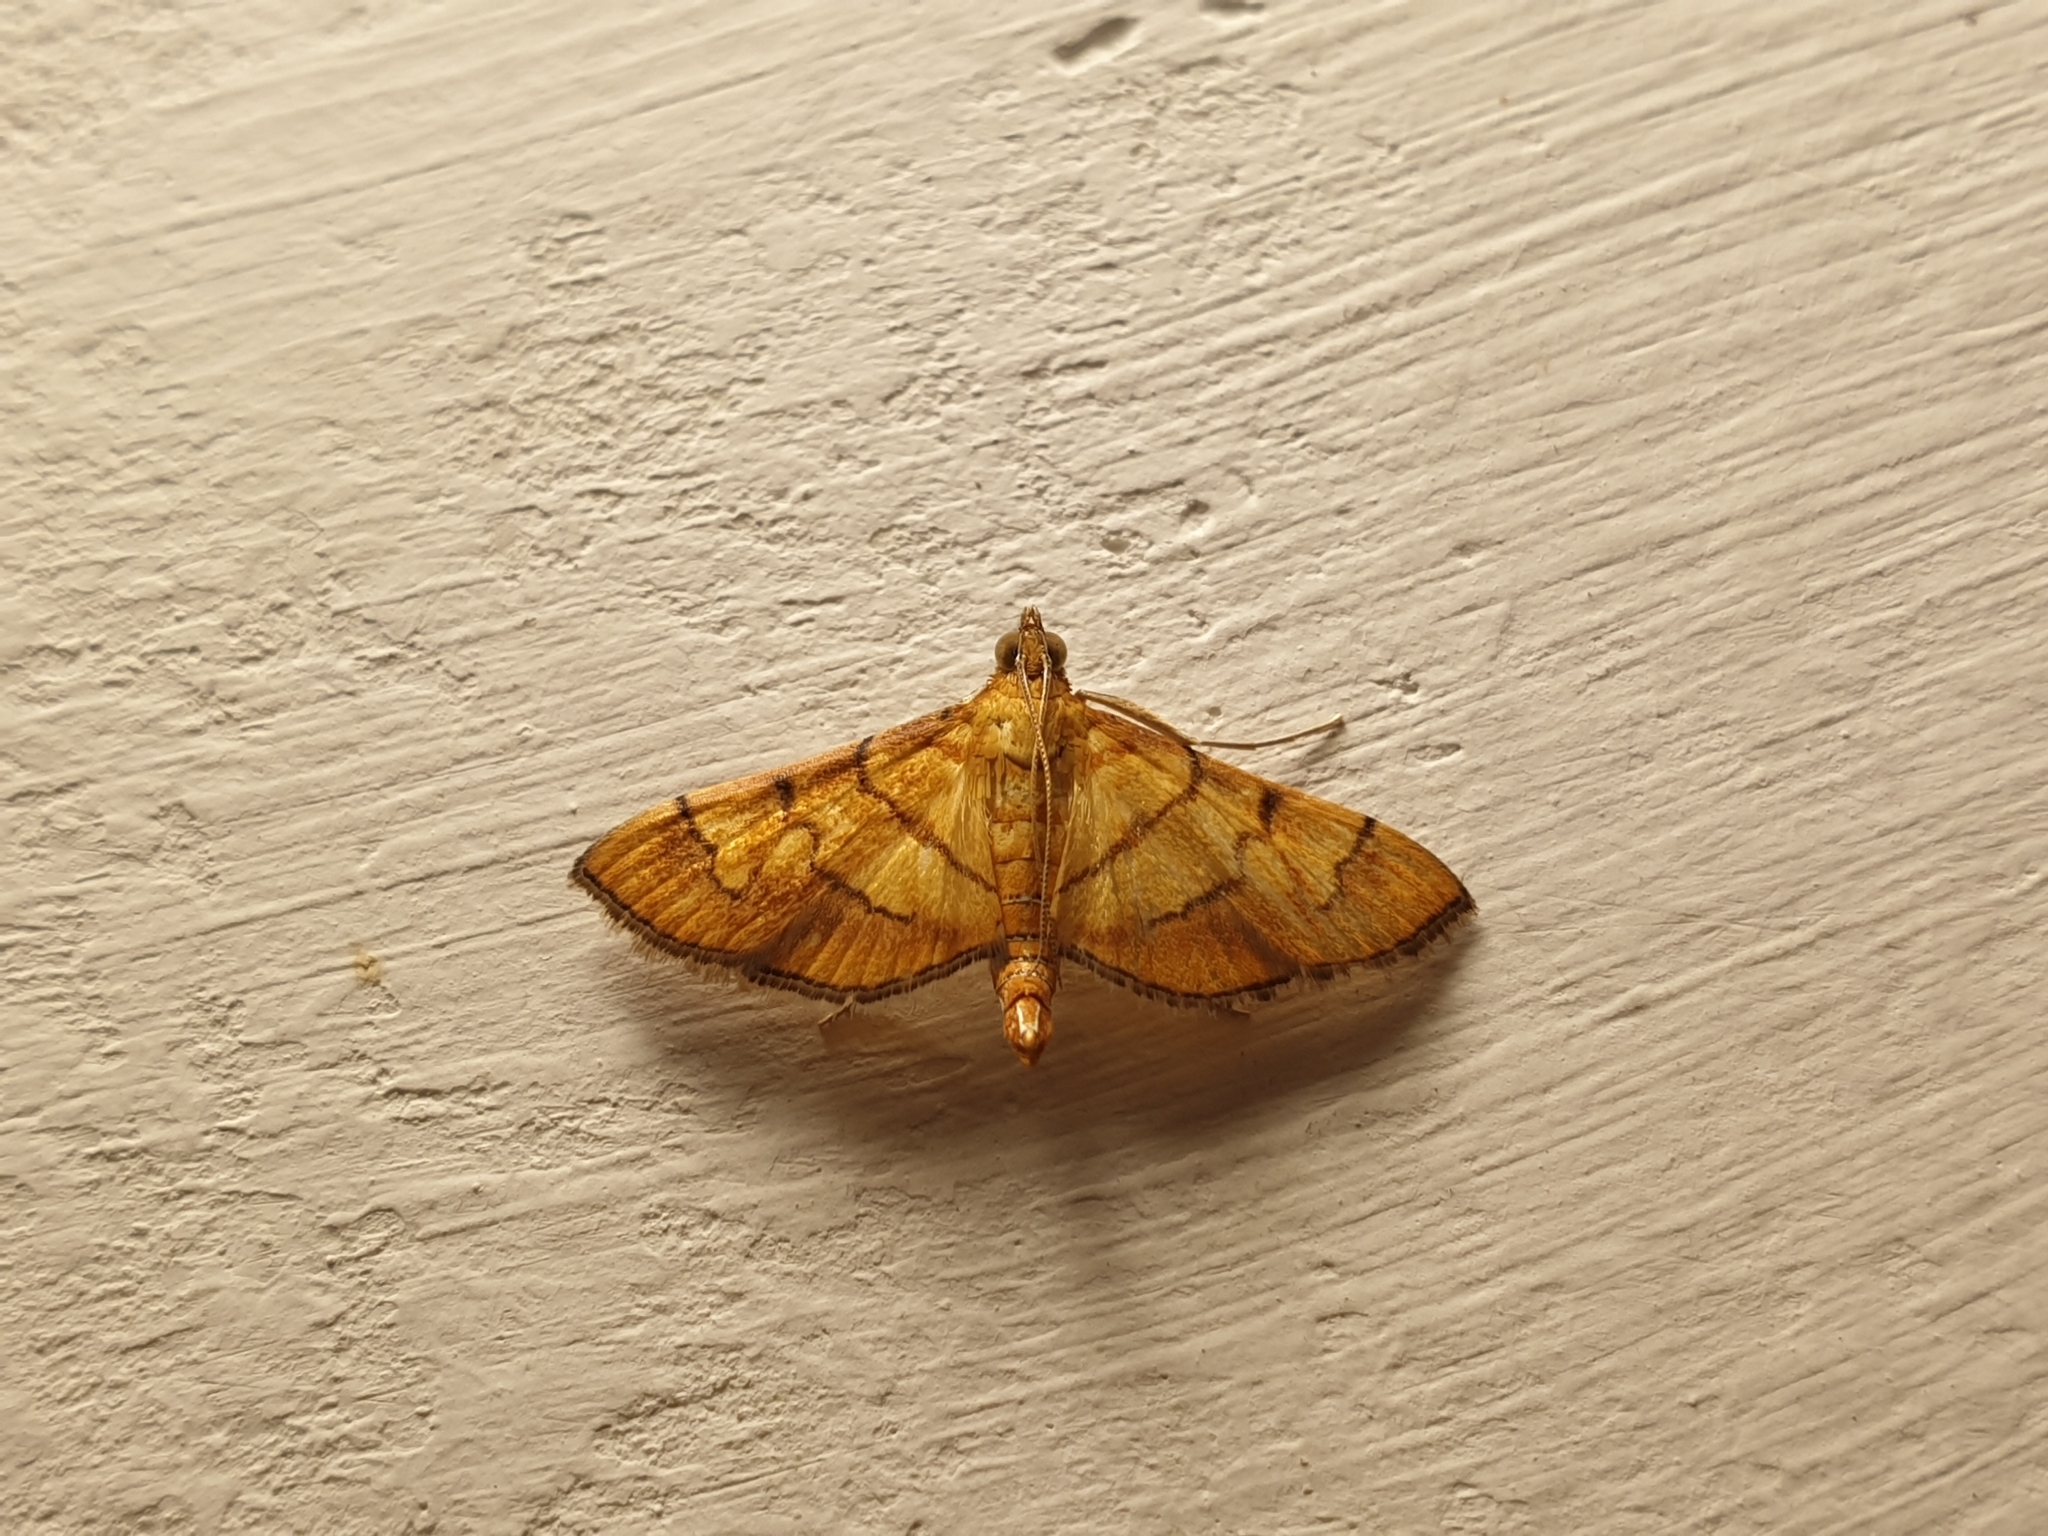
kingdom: Animalia
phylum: Arthropoda
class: Insecta
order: Lepidoptera
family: Crambidae
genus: Orphanostigma
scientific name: Orphanostigma abruptalis
